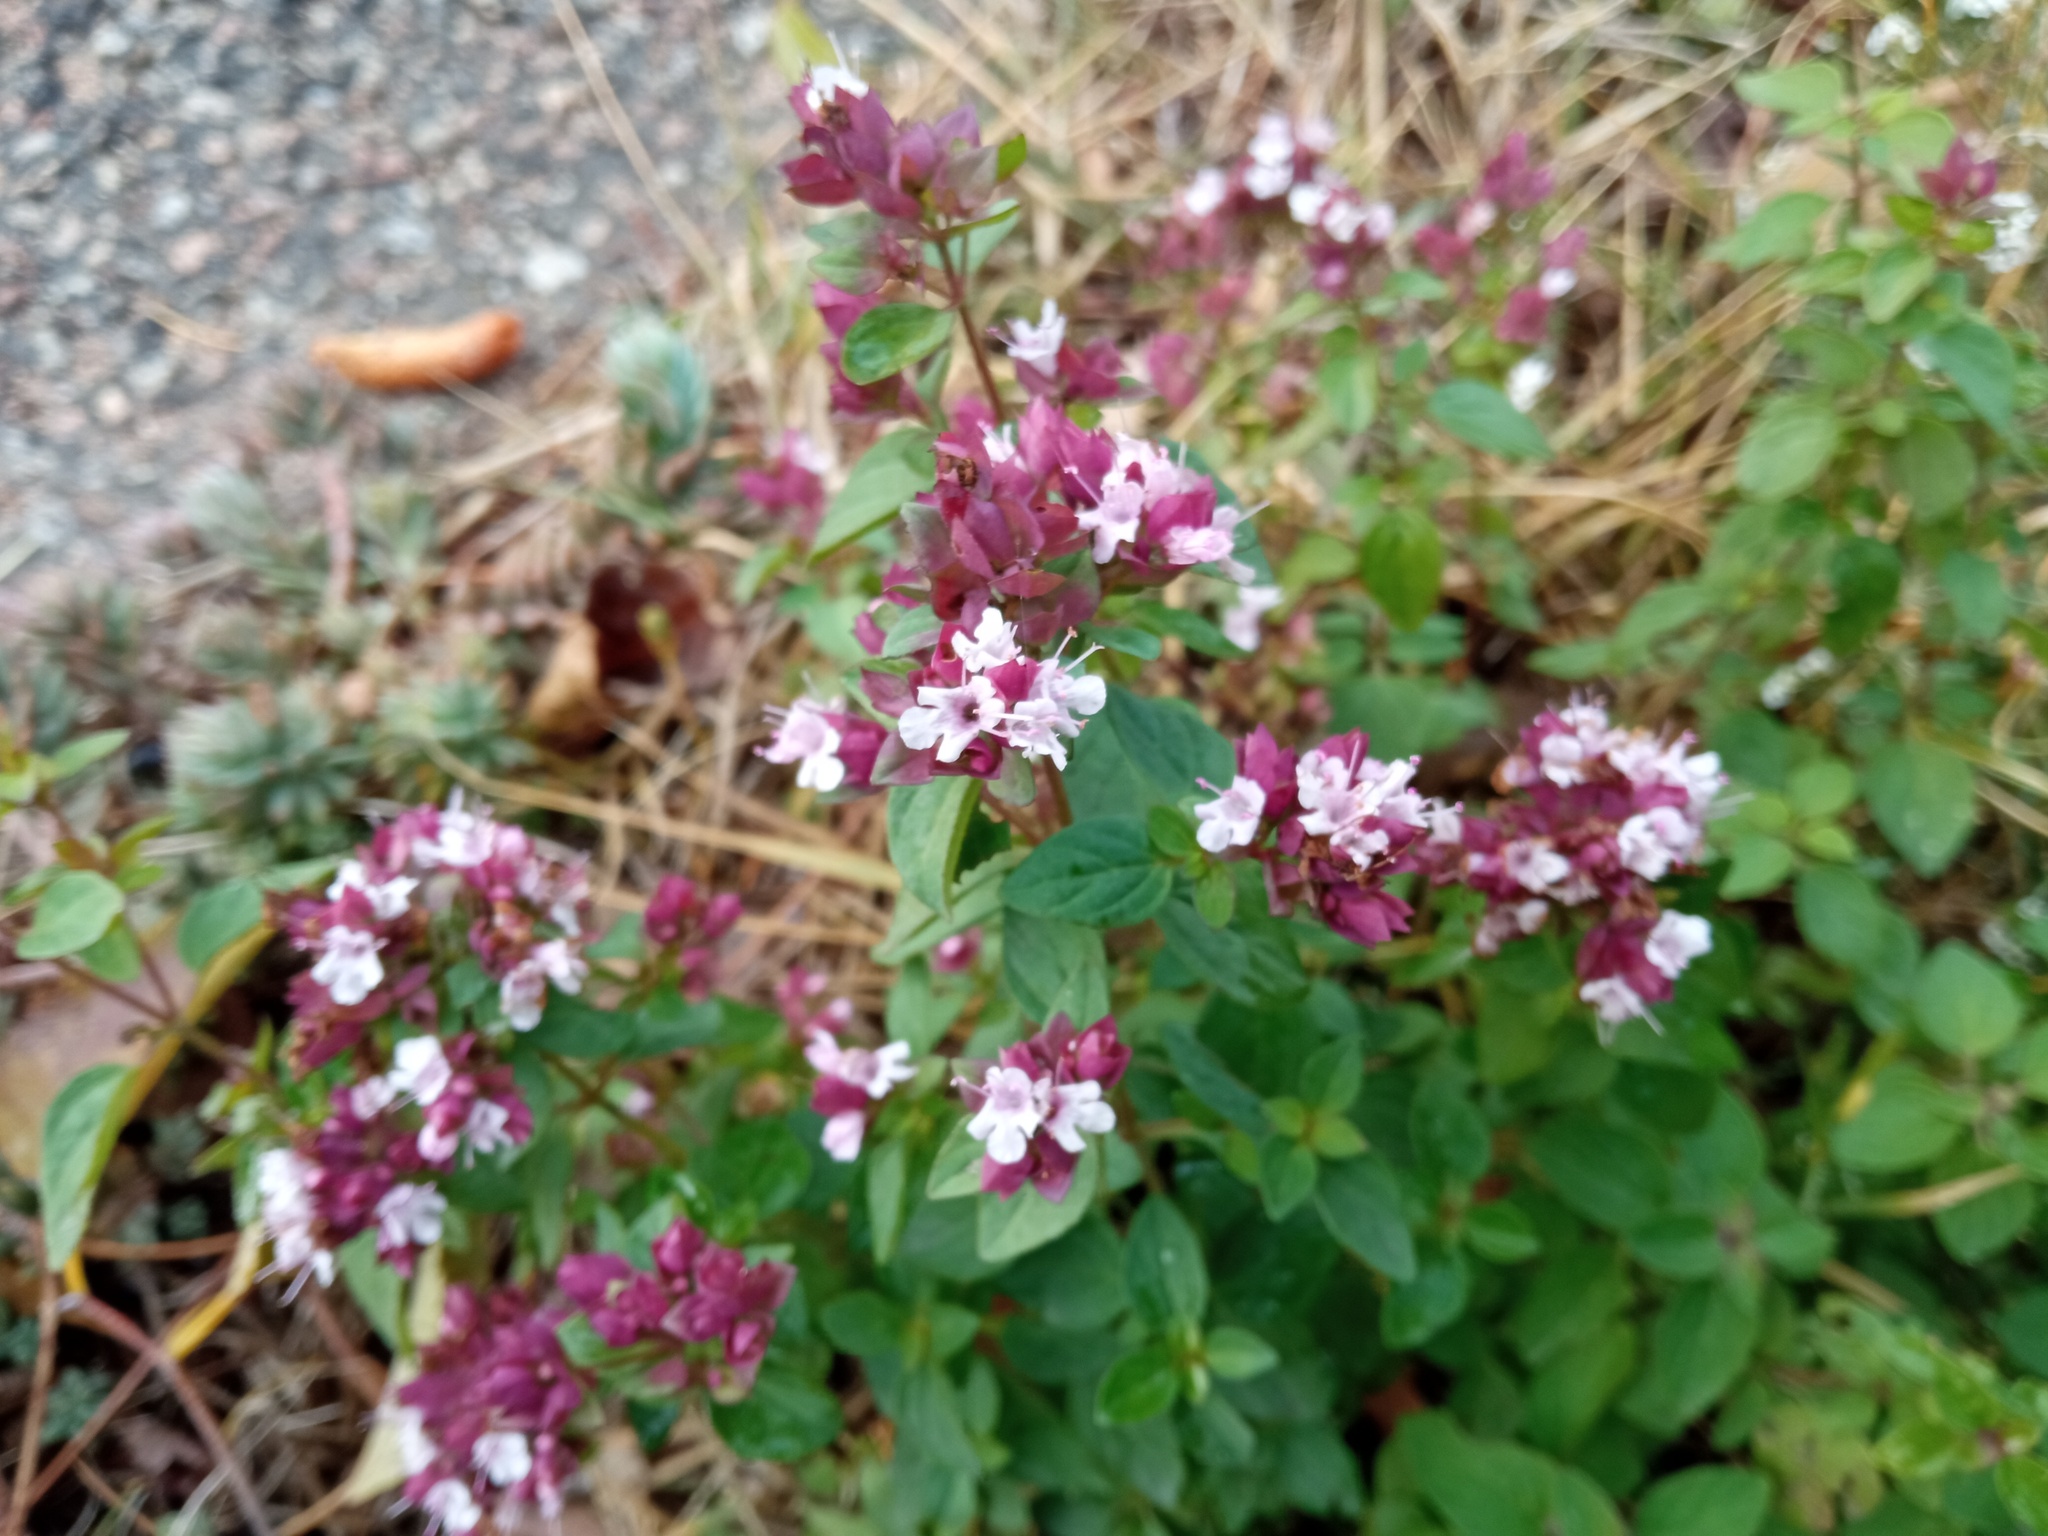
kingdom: Plantae
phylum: Tracheophyta
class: Magnoliopsida
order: Lamiales
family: Lamiaceae
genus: Origanum
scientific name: Origanum vulgare
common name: Wild marjoram
